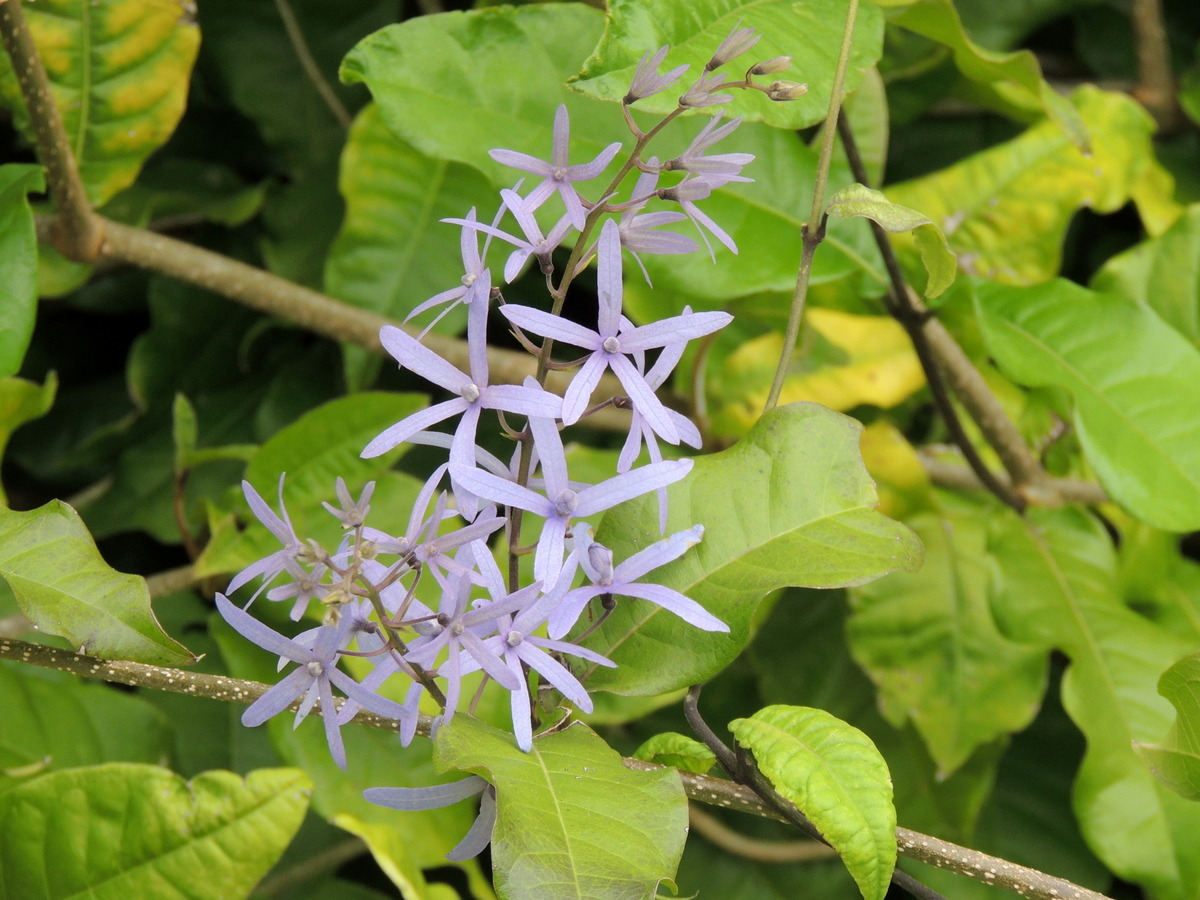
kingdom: Plantae
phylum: Tracheophyta
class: Magnoliopsida
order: Lamiales
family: Verbenaceae
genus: Petrea
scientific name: Petrea volubilis
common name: Queen's-wreath
